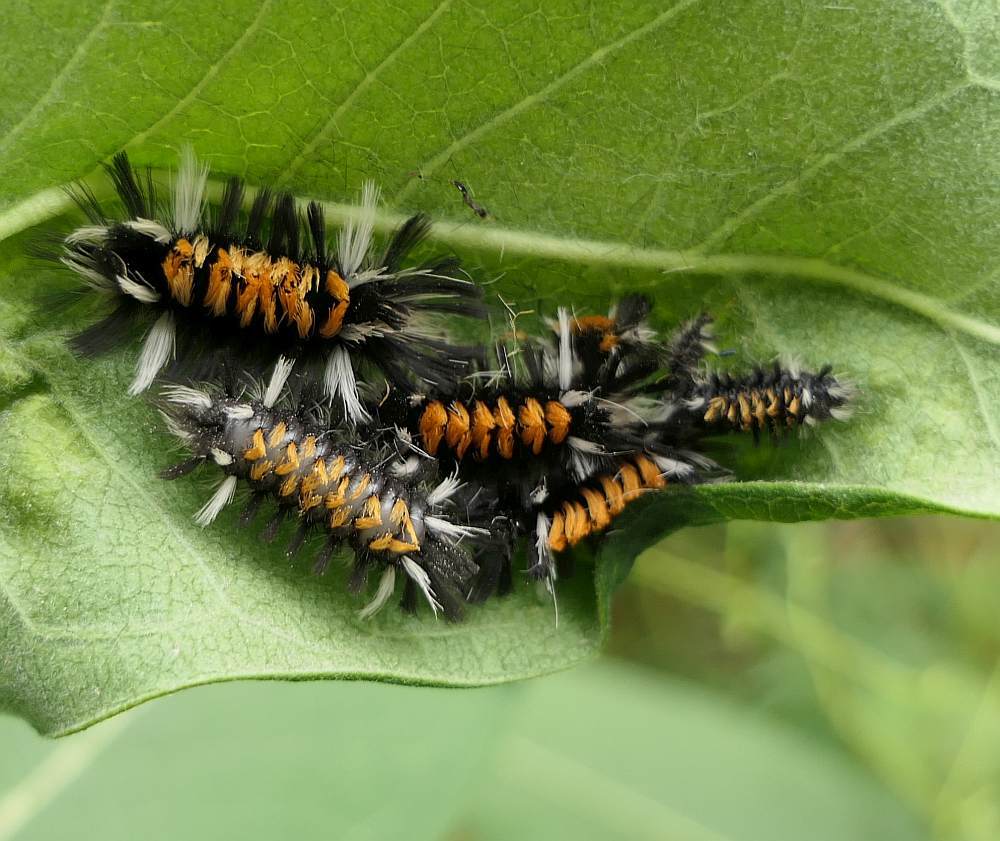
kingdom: Animalia
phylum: Arthropoda
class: Insecta
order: Lepidoptera
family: Erebidae
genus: Euchaetes
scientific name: Euchaetes egle
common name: Milkweed tussock moth
